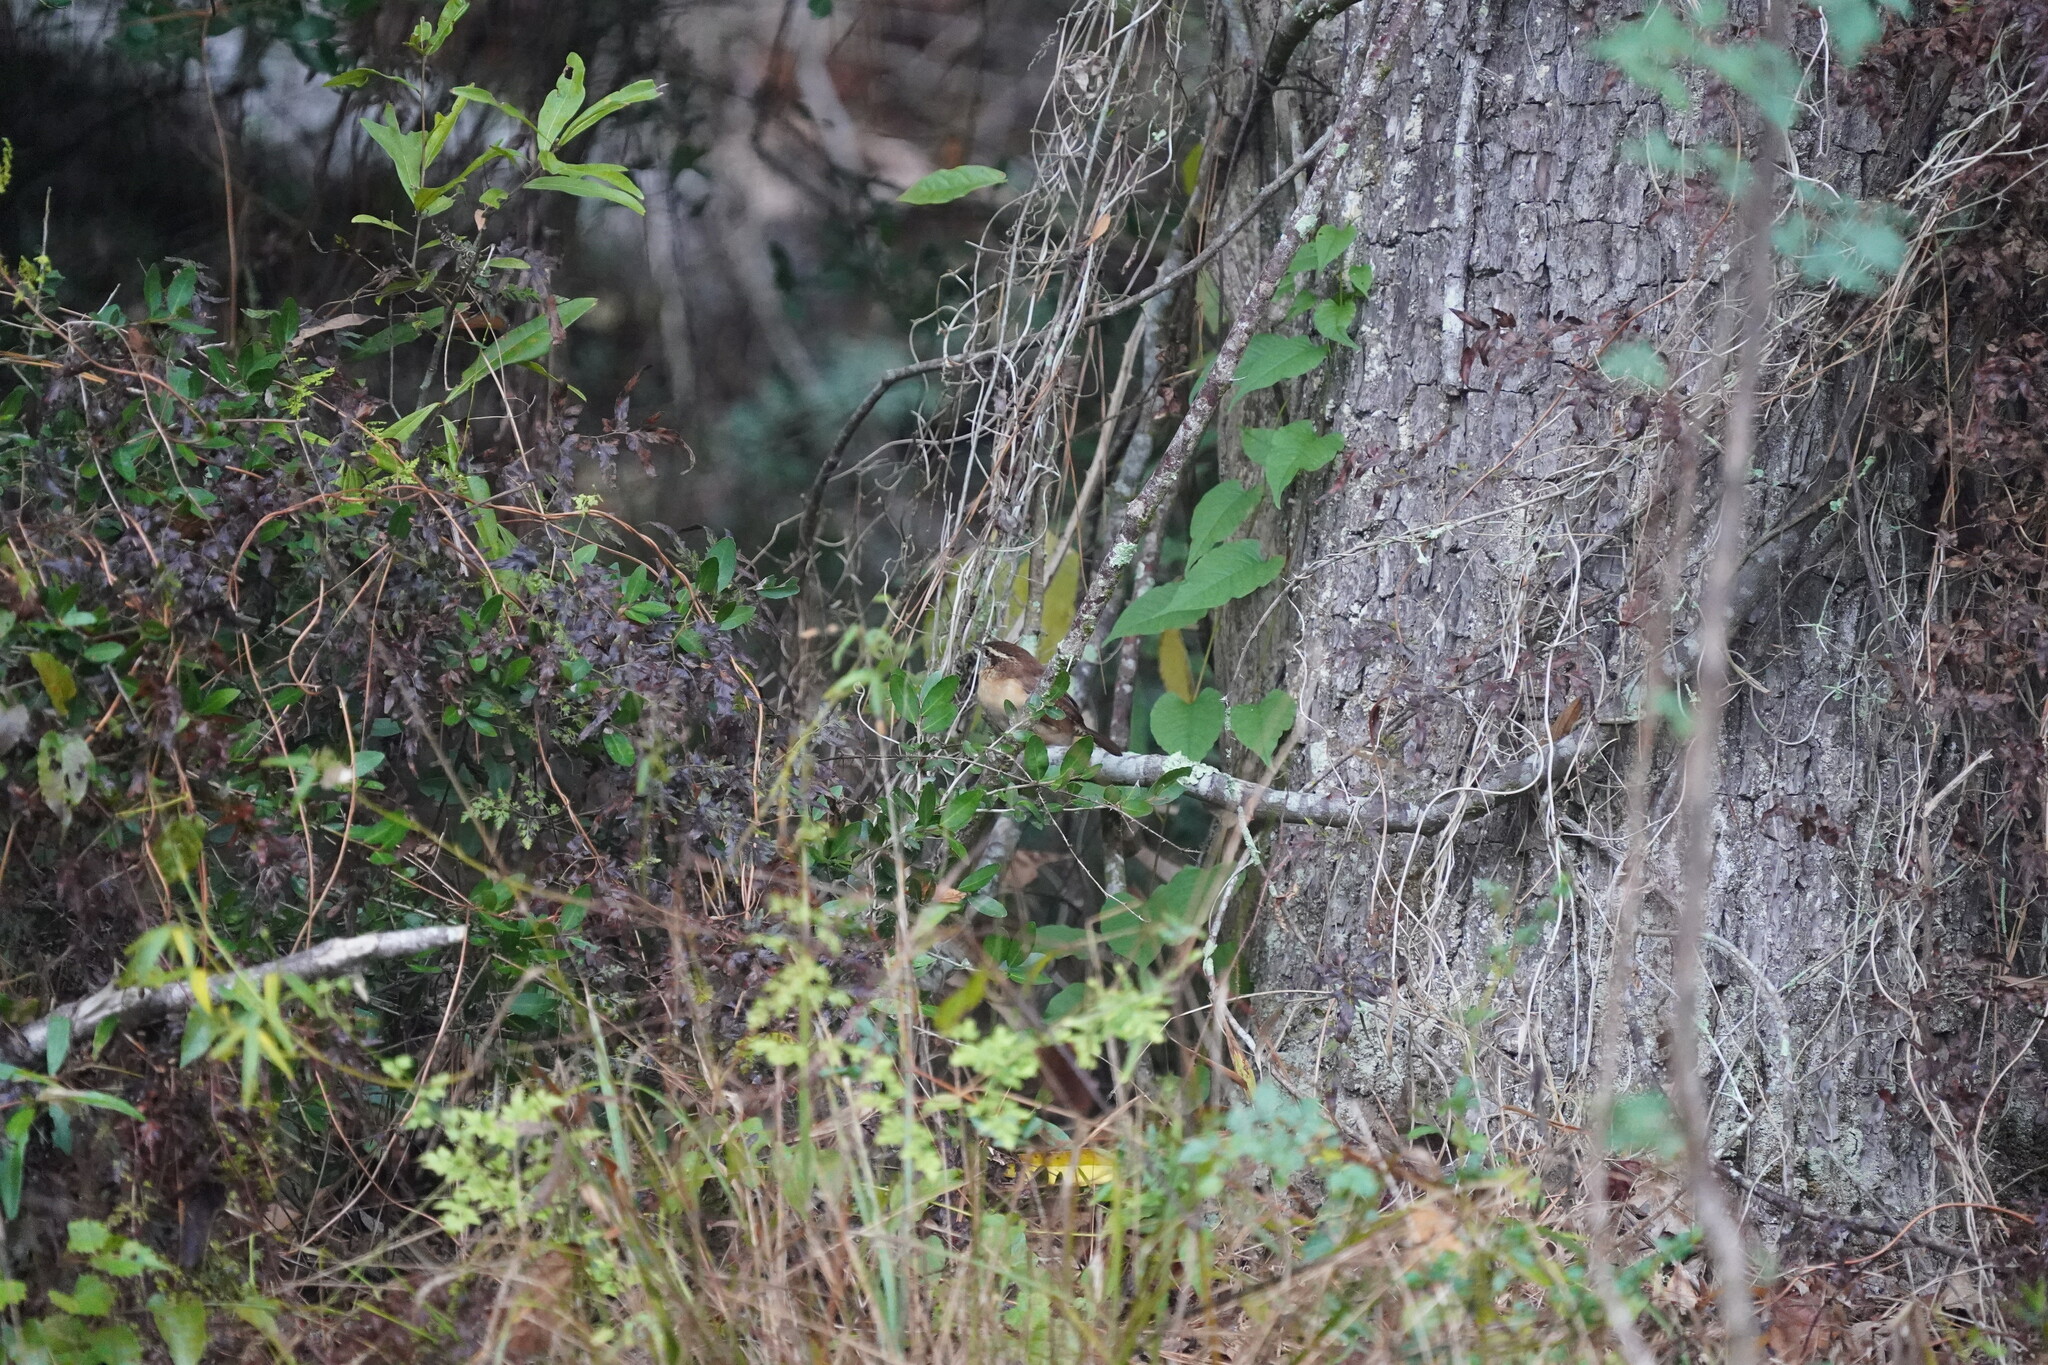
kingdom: Animalia
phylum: Chordata
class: Aves
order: Passeriformes
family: Troglodytidae
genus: Thryothorus
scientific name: Thryothorus ludovicianus
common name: Carolina wren
